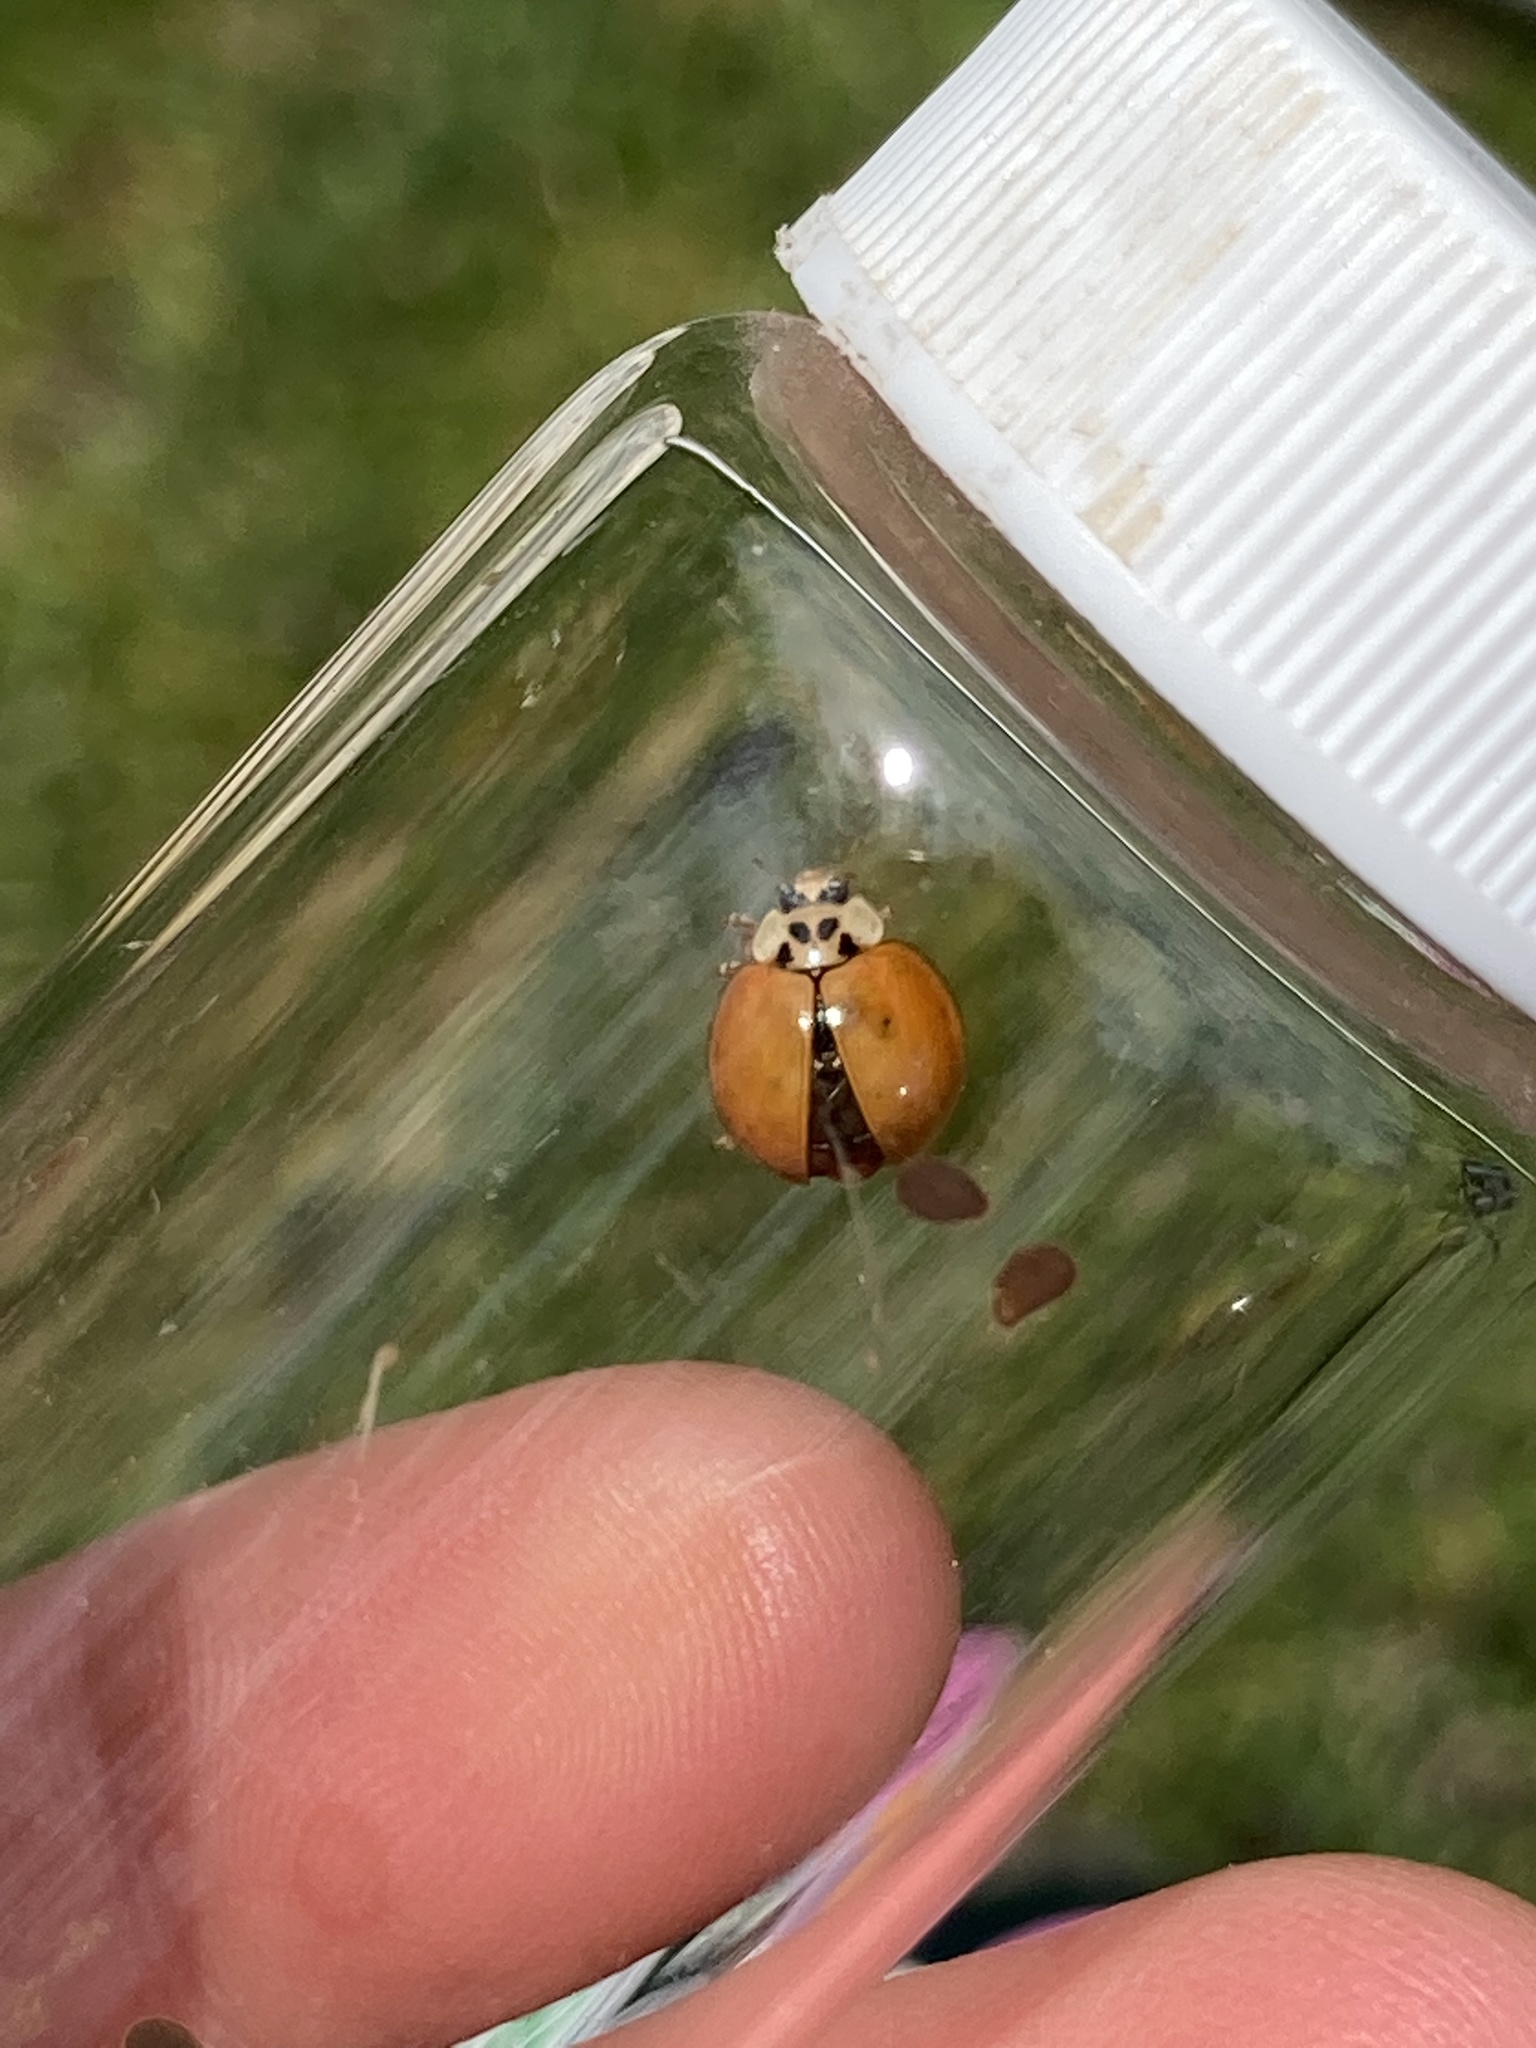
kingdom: Animalia
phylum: Arthropoda
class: Insecta
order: Coleoptera
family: Coccinellidae
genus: Harmonia
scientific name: Harmonia axyridis
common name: Harlequin ladybird
